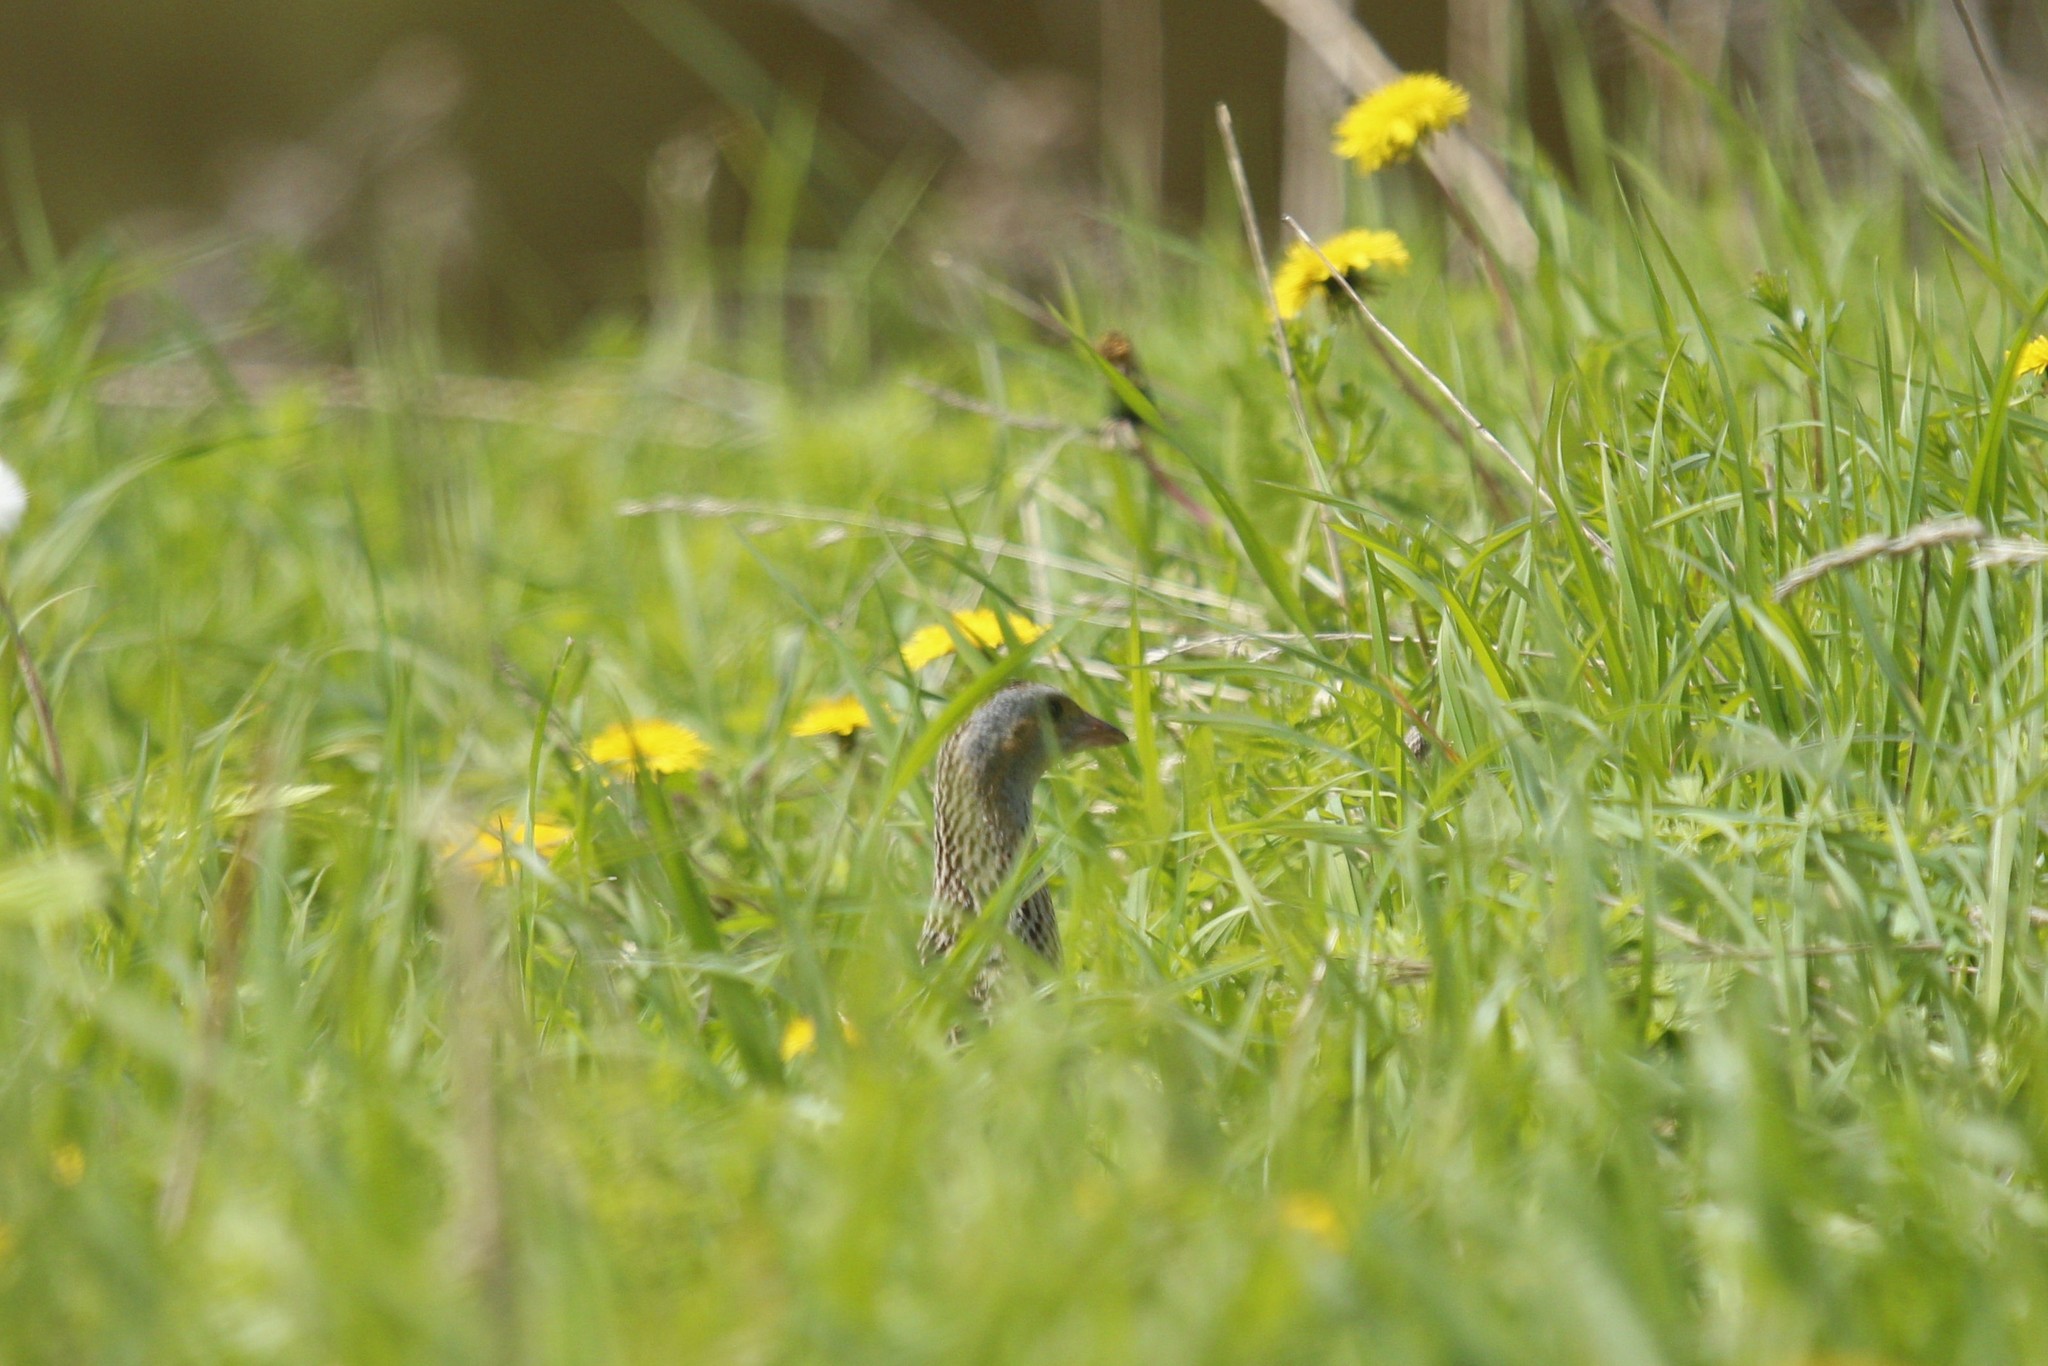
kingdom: Animalia
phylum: Chordata
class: Aves
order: Gruiformes
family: Rallidae
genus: Crex
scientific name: Crex crex
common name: Corn crake
